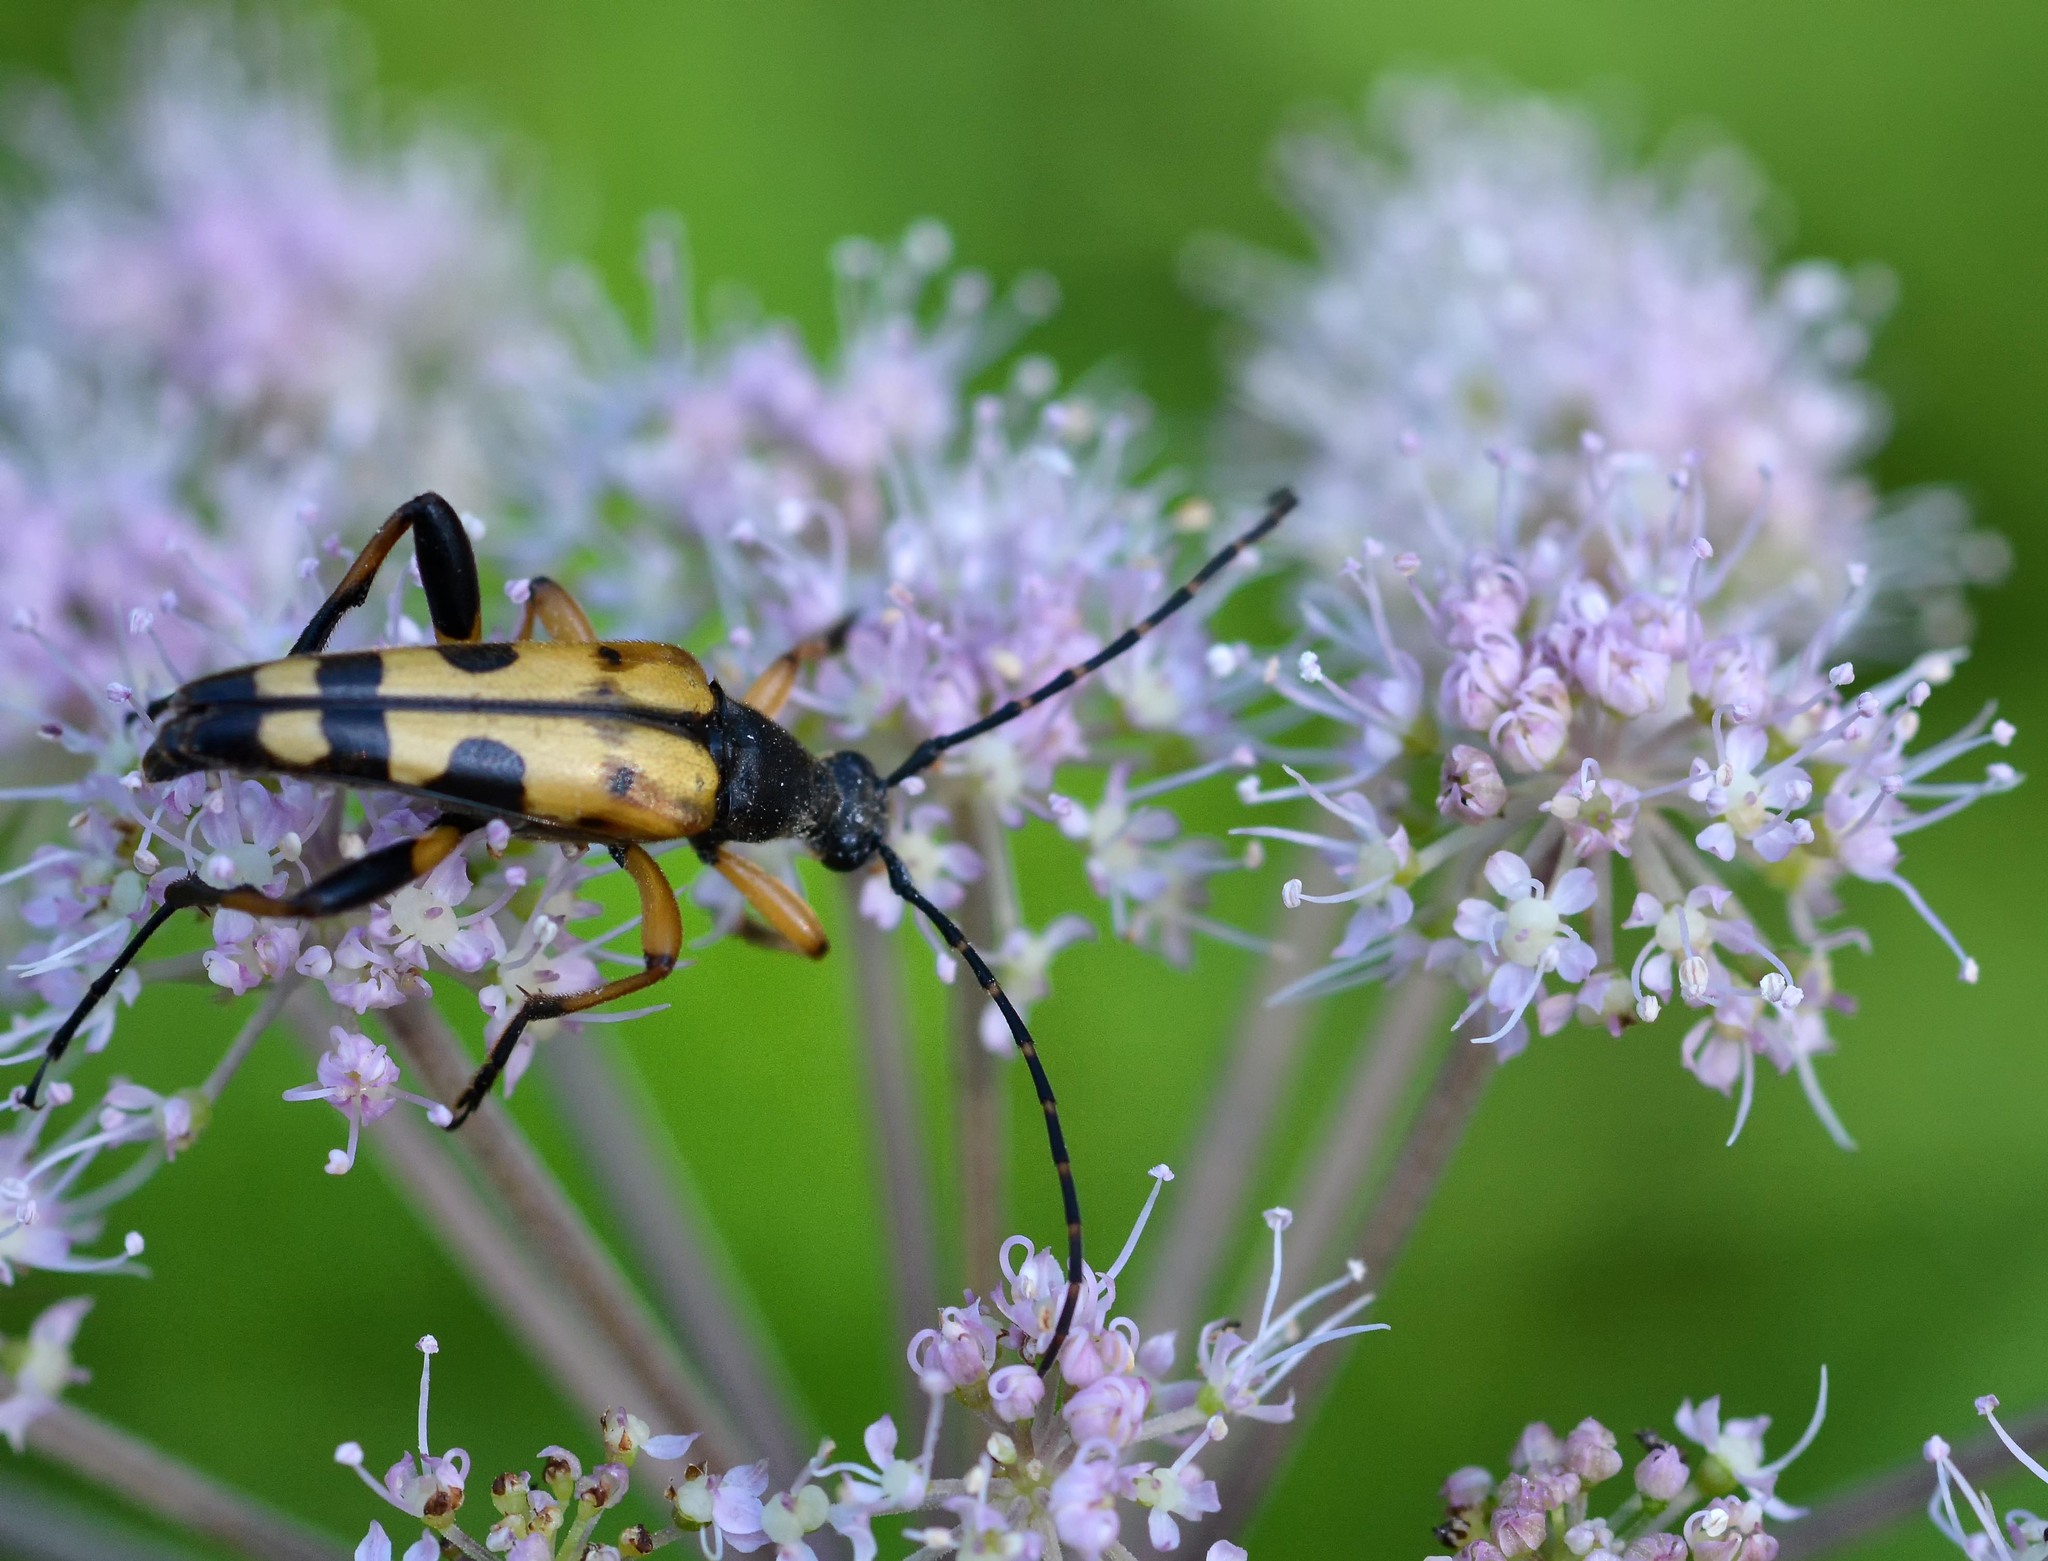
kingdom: Animalia
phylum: Arthropoda
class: Insecta
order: Coleoptera
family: Cerambycidae
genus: Rutpela
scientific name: Rutpela maculata
